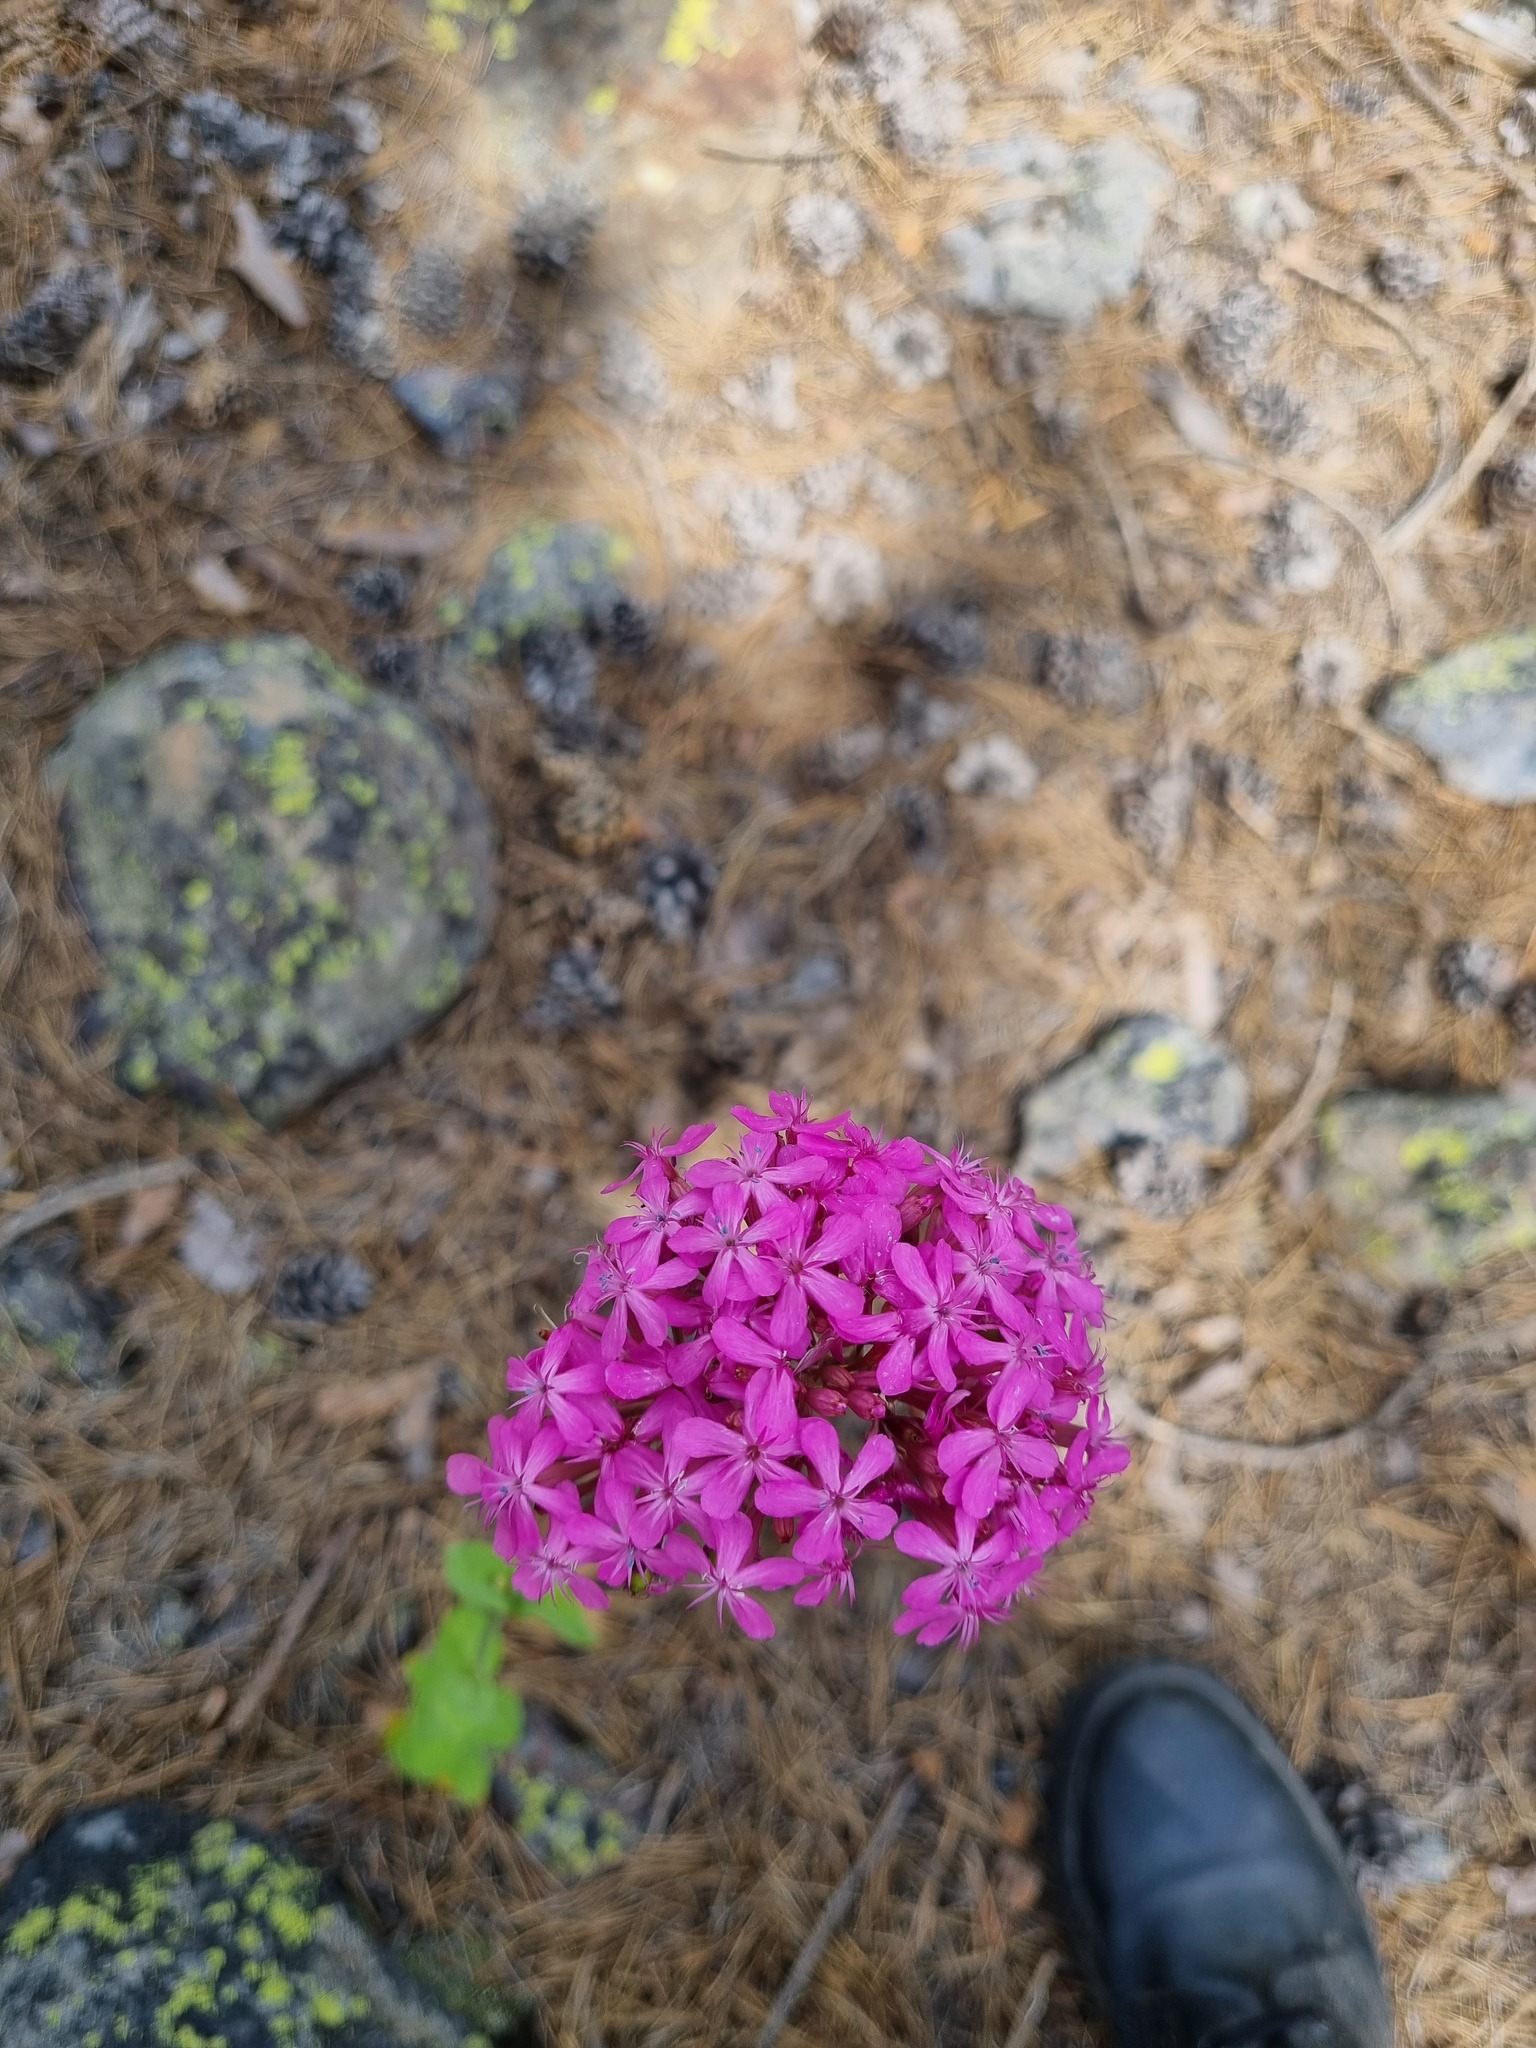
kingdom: Plantae
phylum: Tracheophyta
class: Magnoliopsida
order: Caryophyllales
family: Caryophyllaceae
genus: Atocion
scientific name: Atocion compactum
